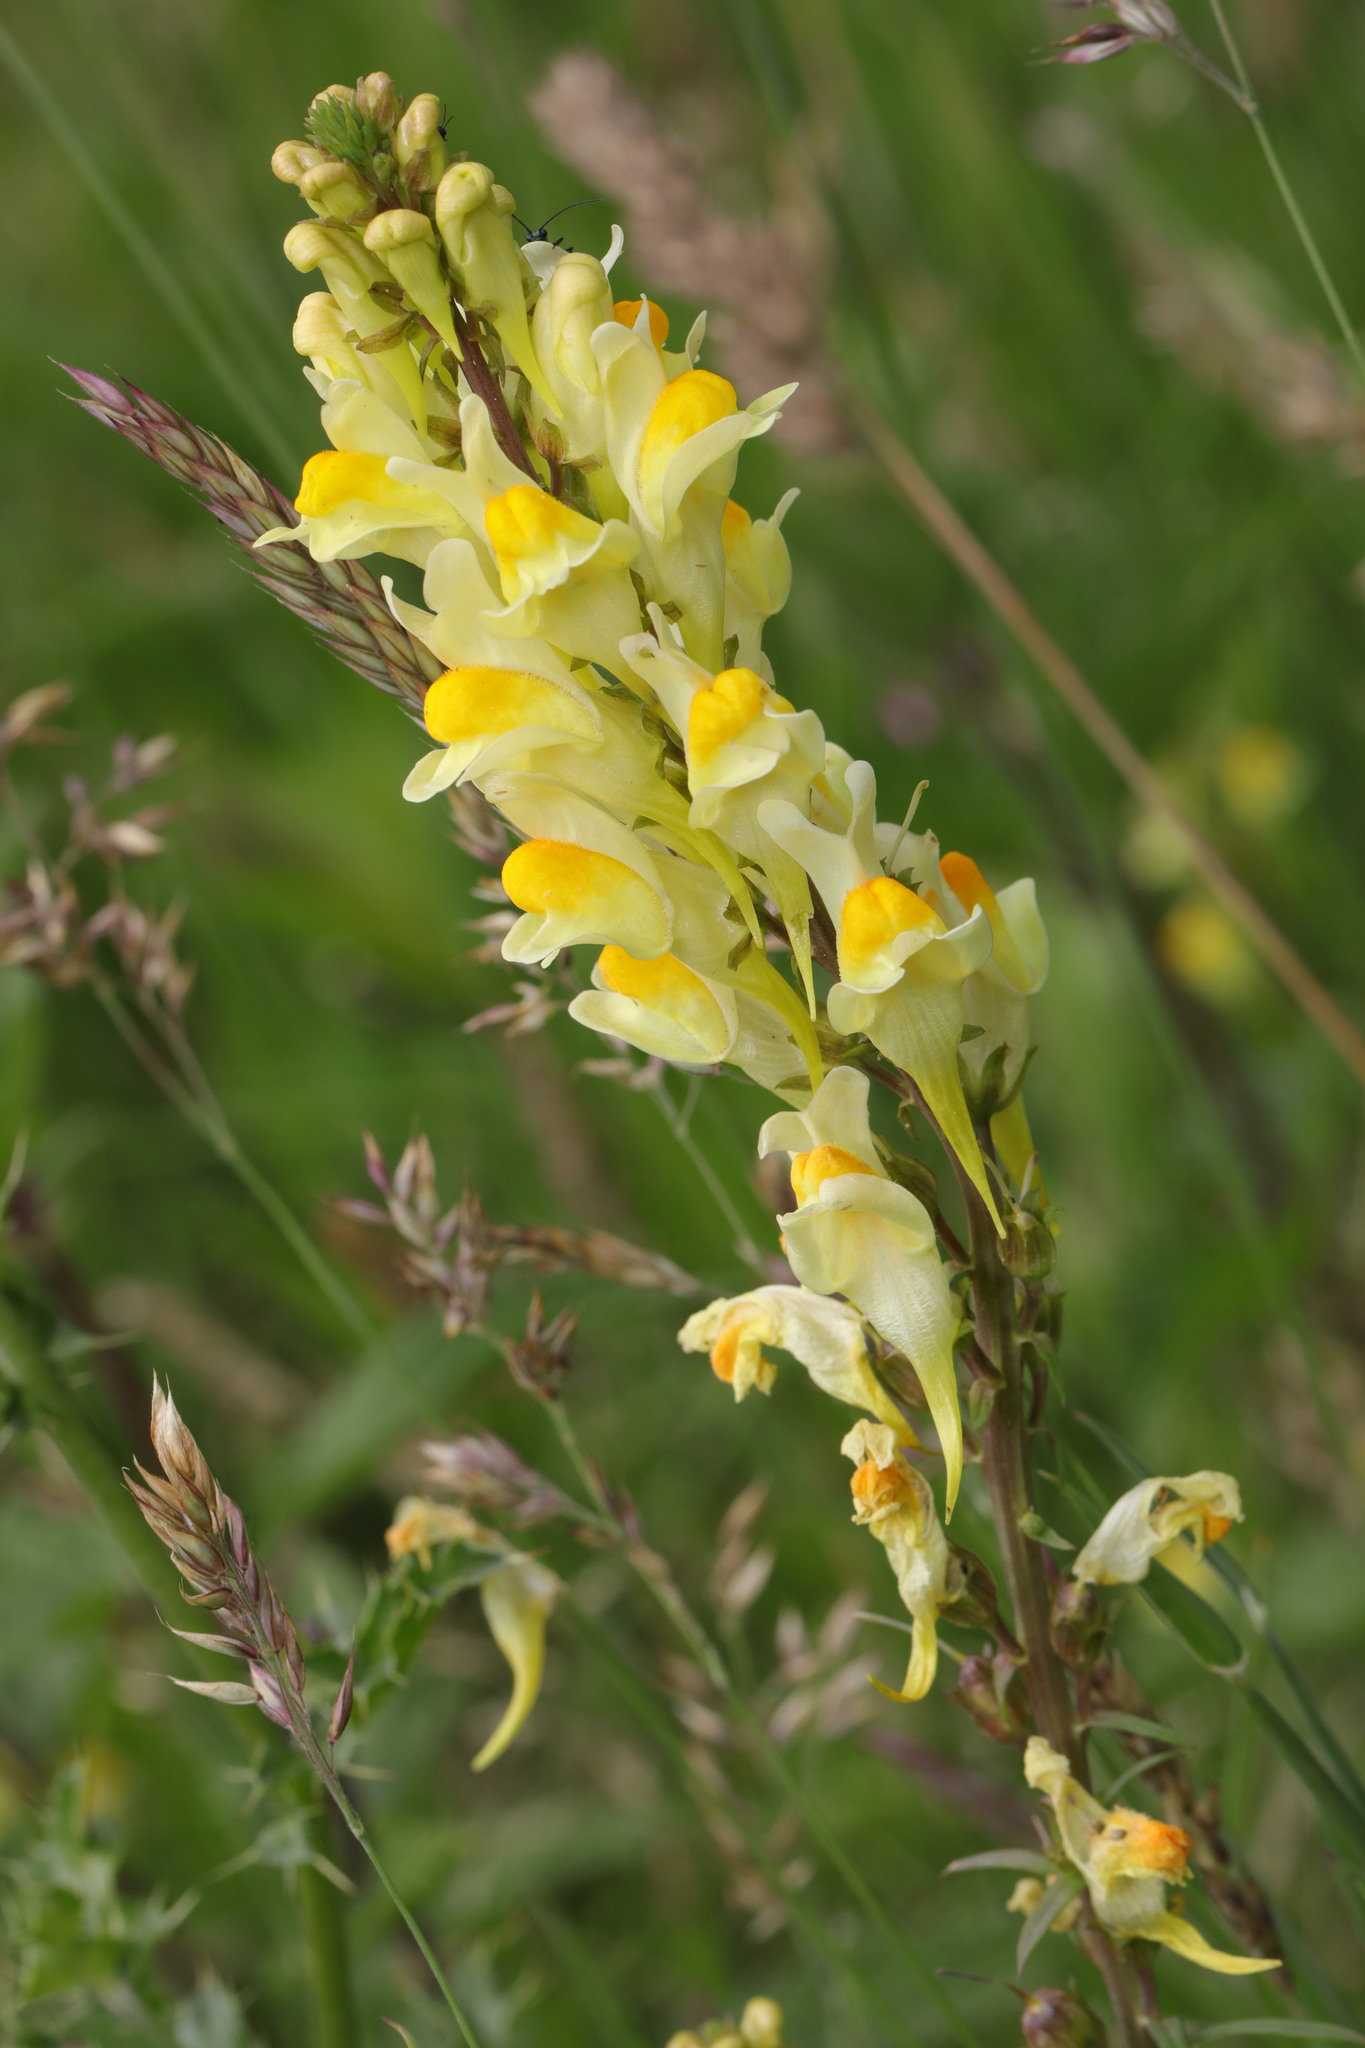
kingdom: Plantae
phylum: Tracheophyta
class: Magnoliopsida
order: Lamiales
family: Plantaginaceae
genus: Linaria
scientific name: Linaria vulgaris
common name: Butter and eggs
